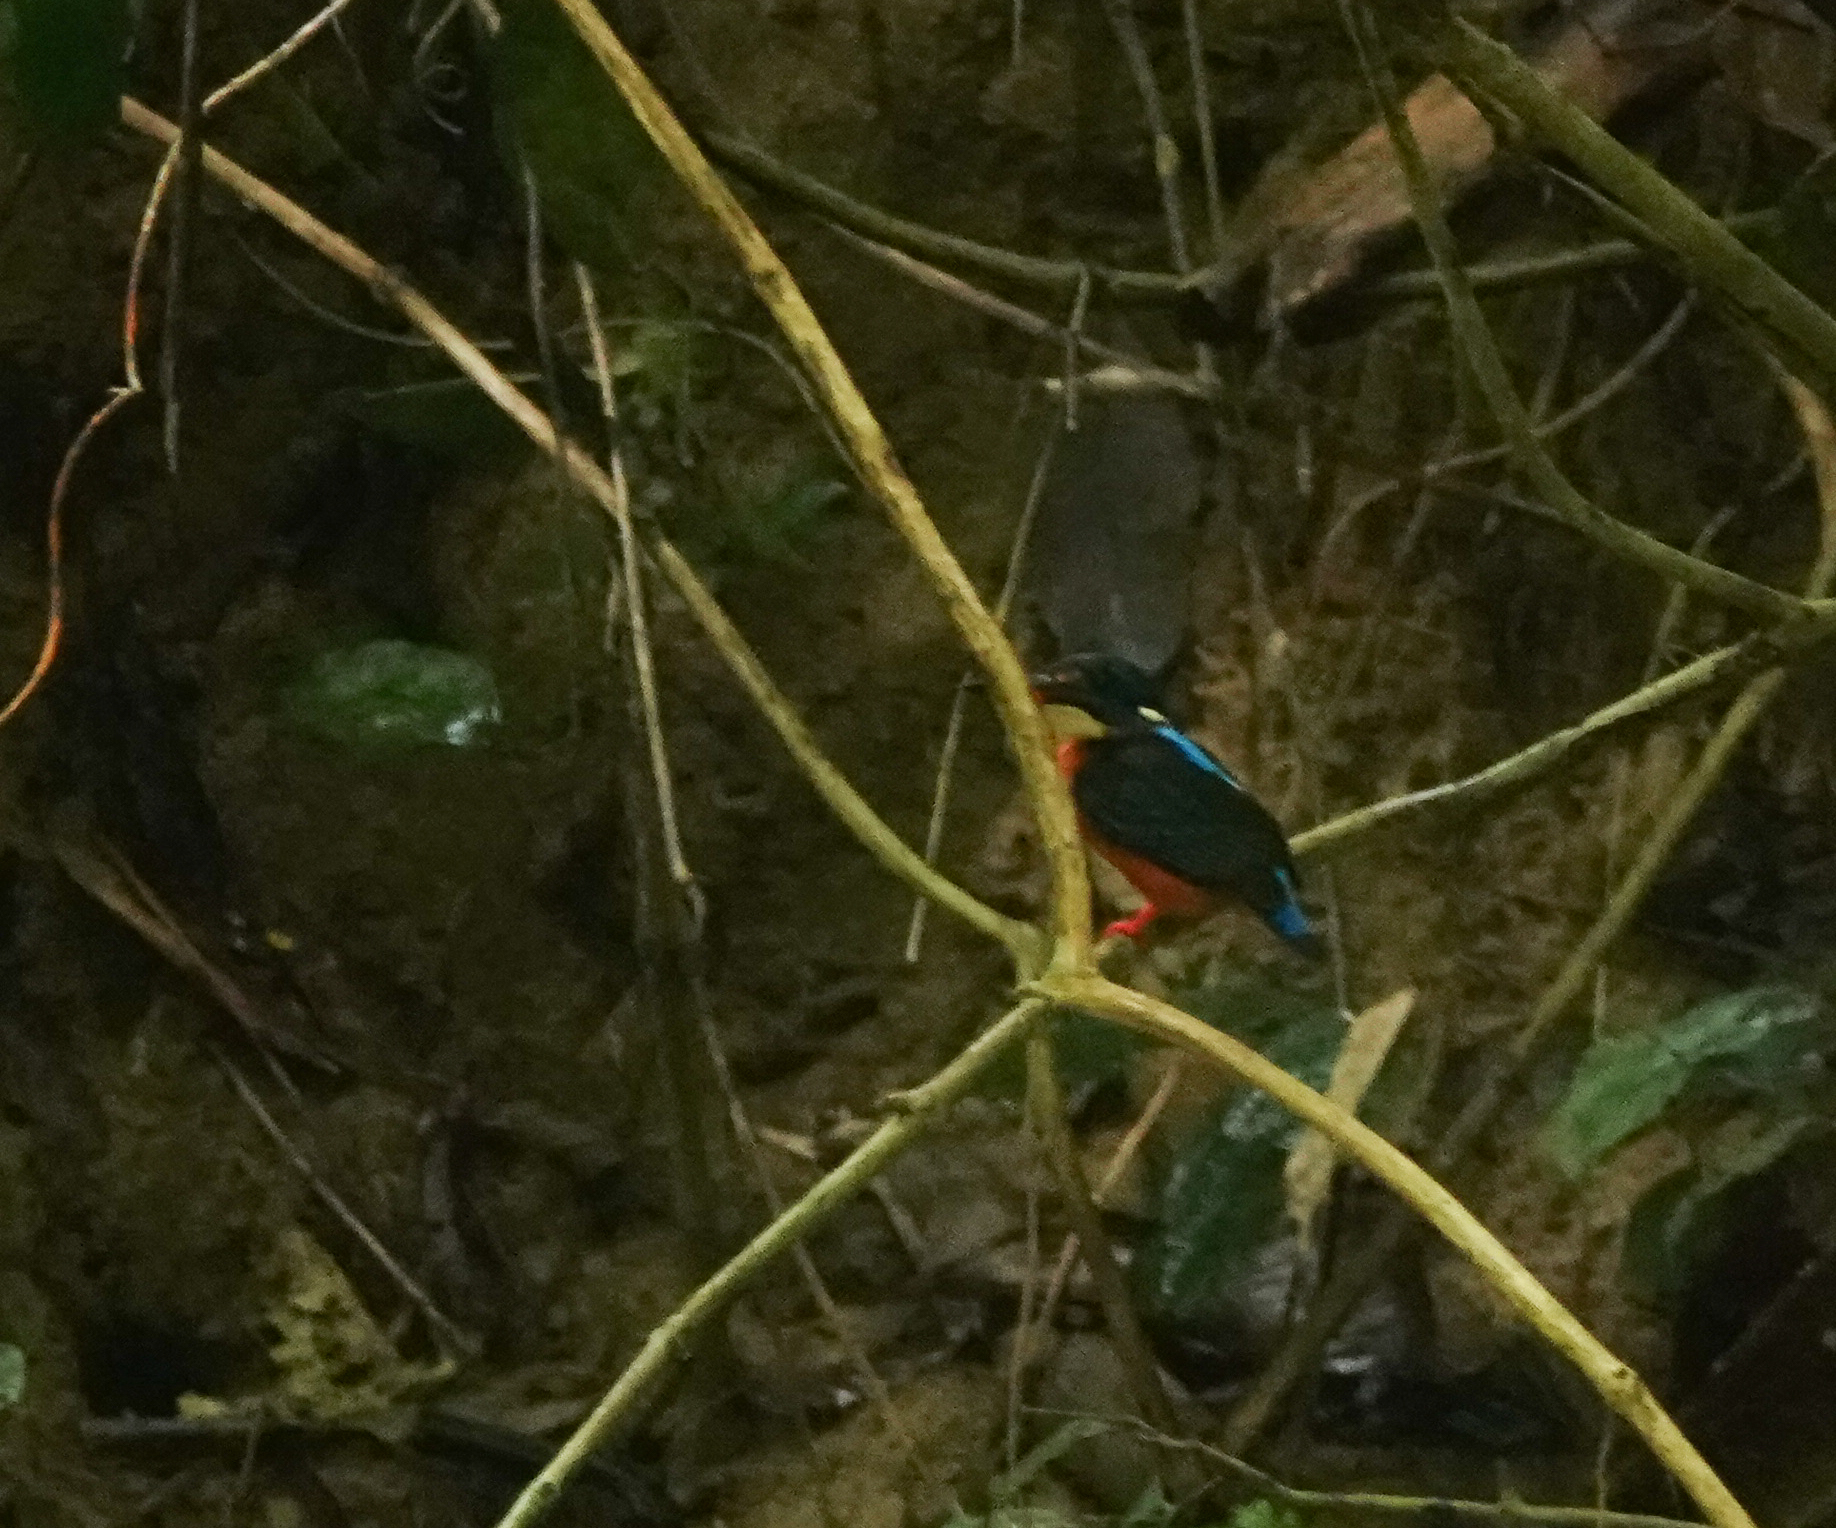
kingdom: Animalia
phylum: Chordata
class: Aves
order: Coraciiformes
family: Alcedinidae
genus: Alcedo
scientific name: Alcedo meninting
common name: Blue-eared kingfisher
